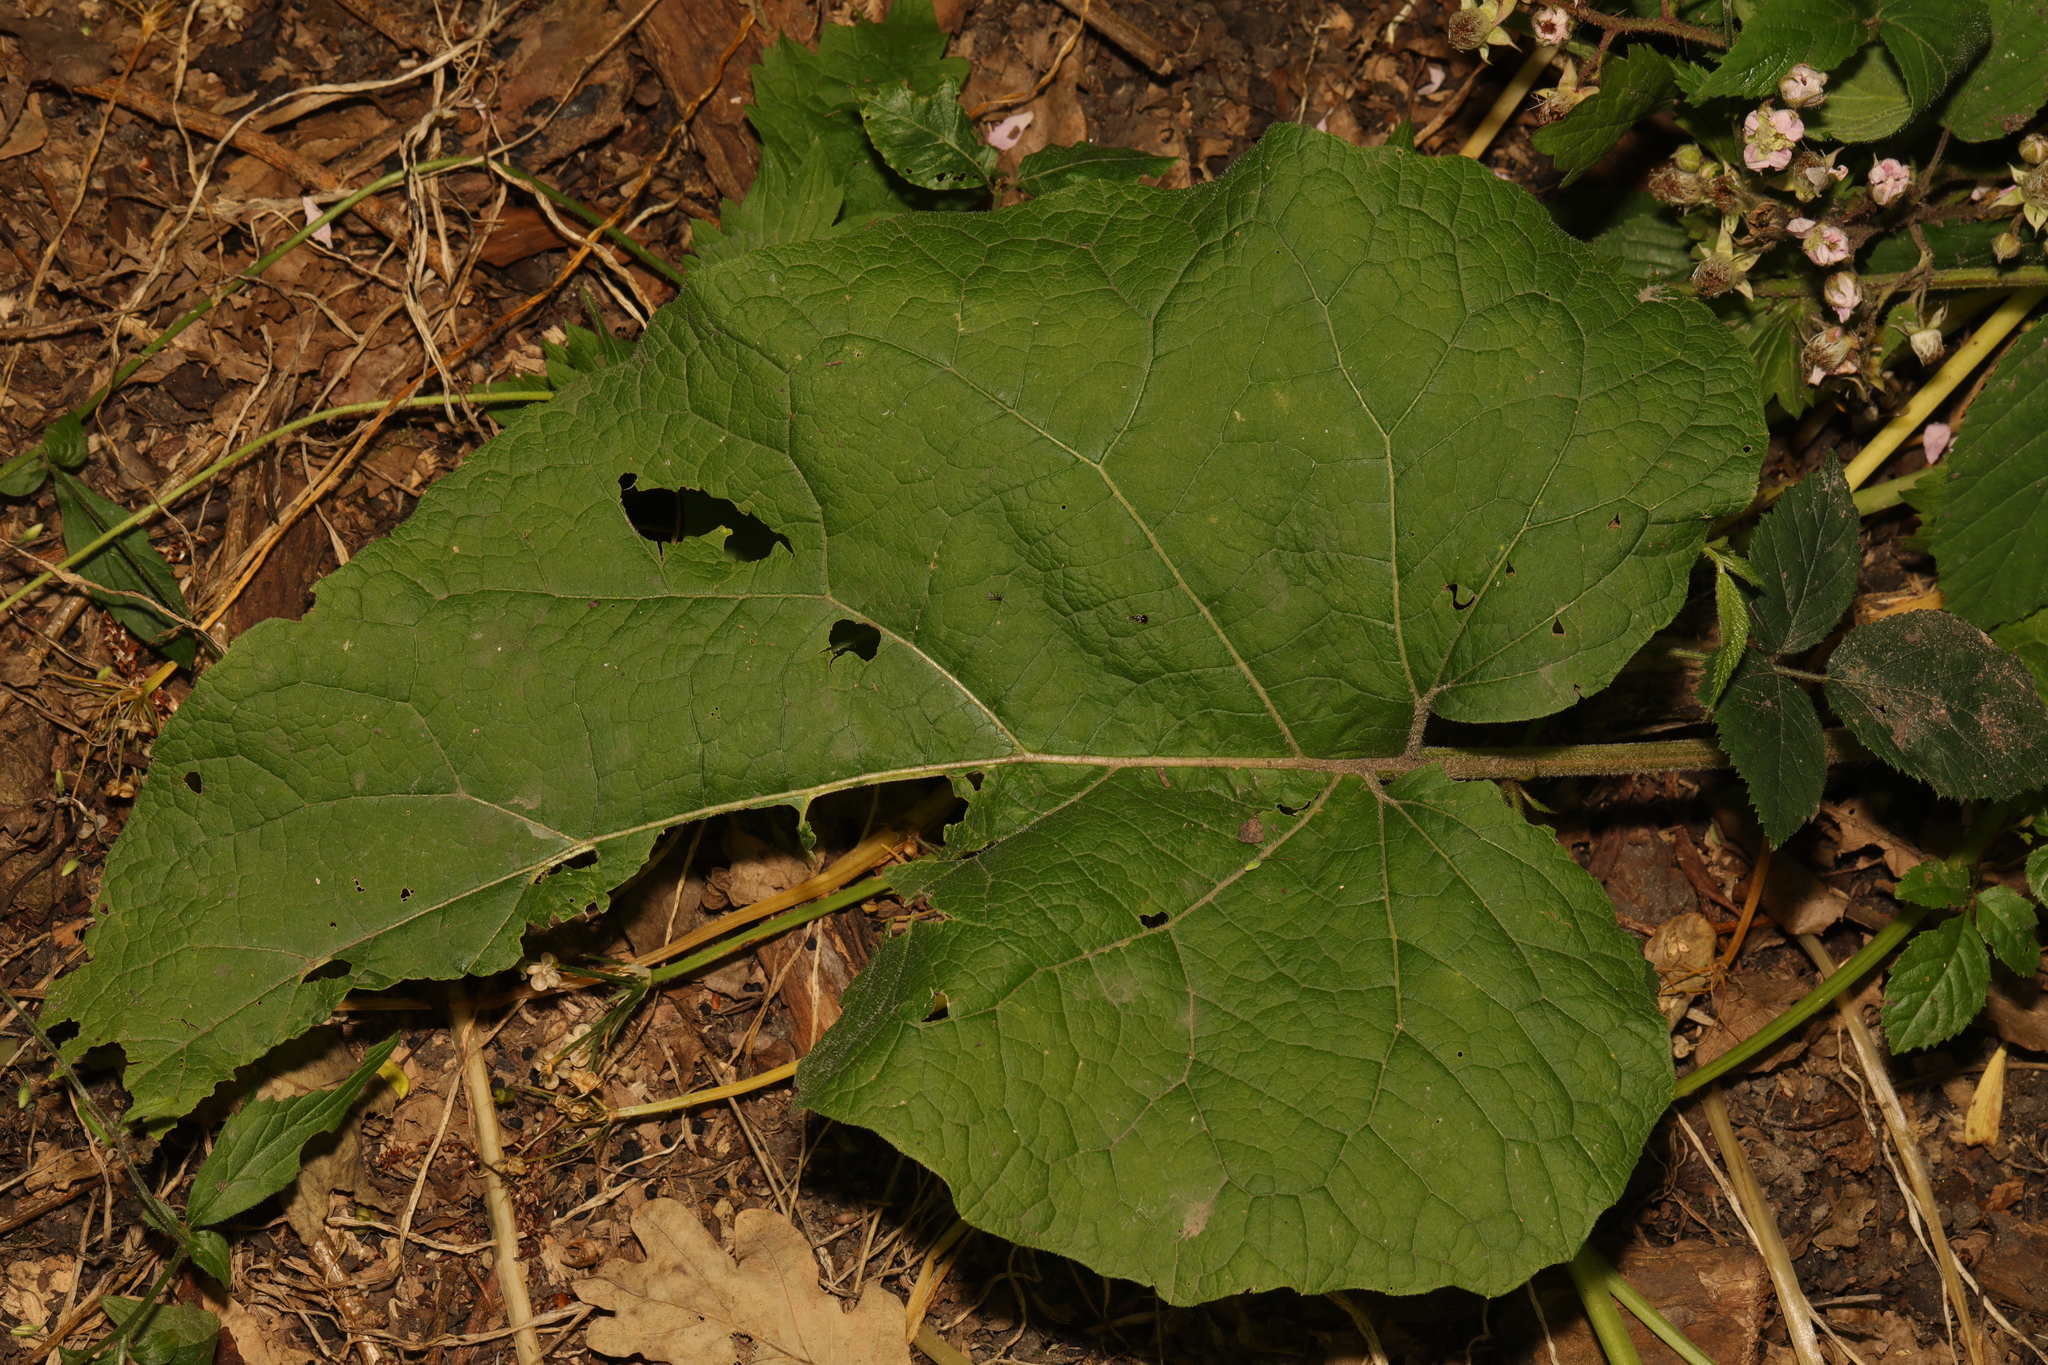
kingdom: Plantae
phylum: Tracheophyta
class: Magnoliopsida
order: Asterales
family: Asteraceae
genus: Arctium
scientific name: Arctium minus
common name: Lesser burdock
